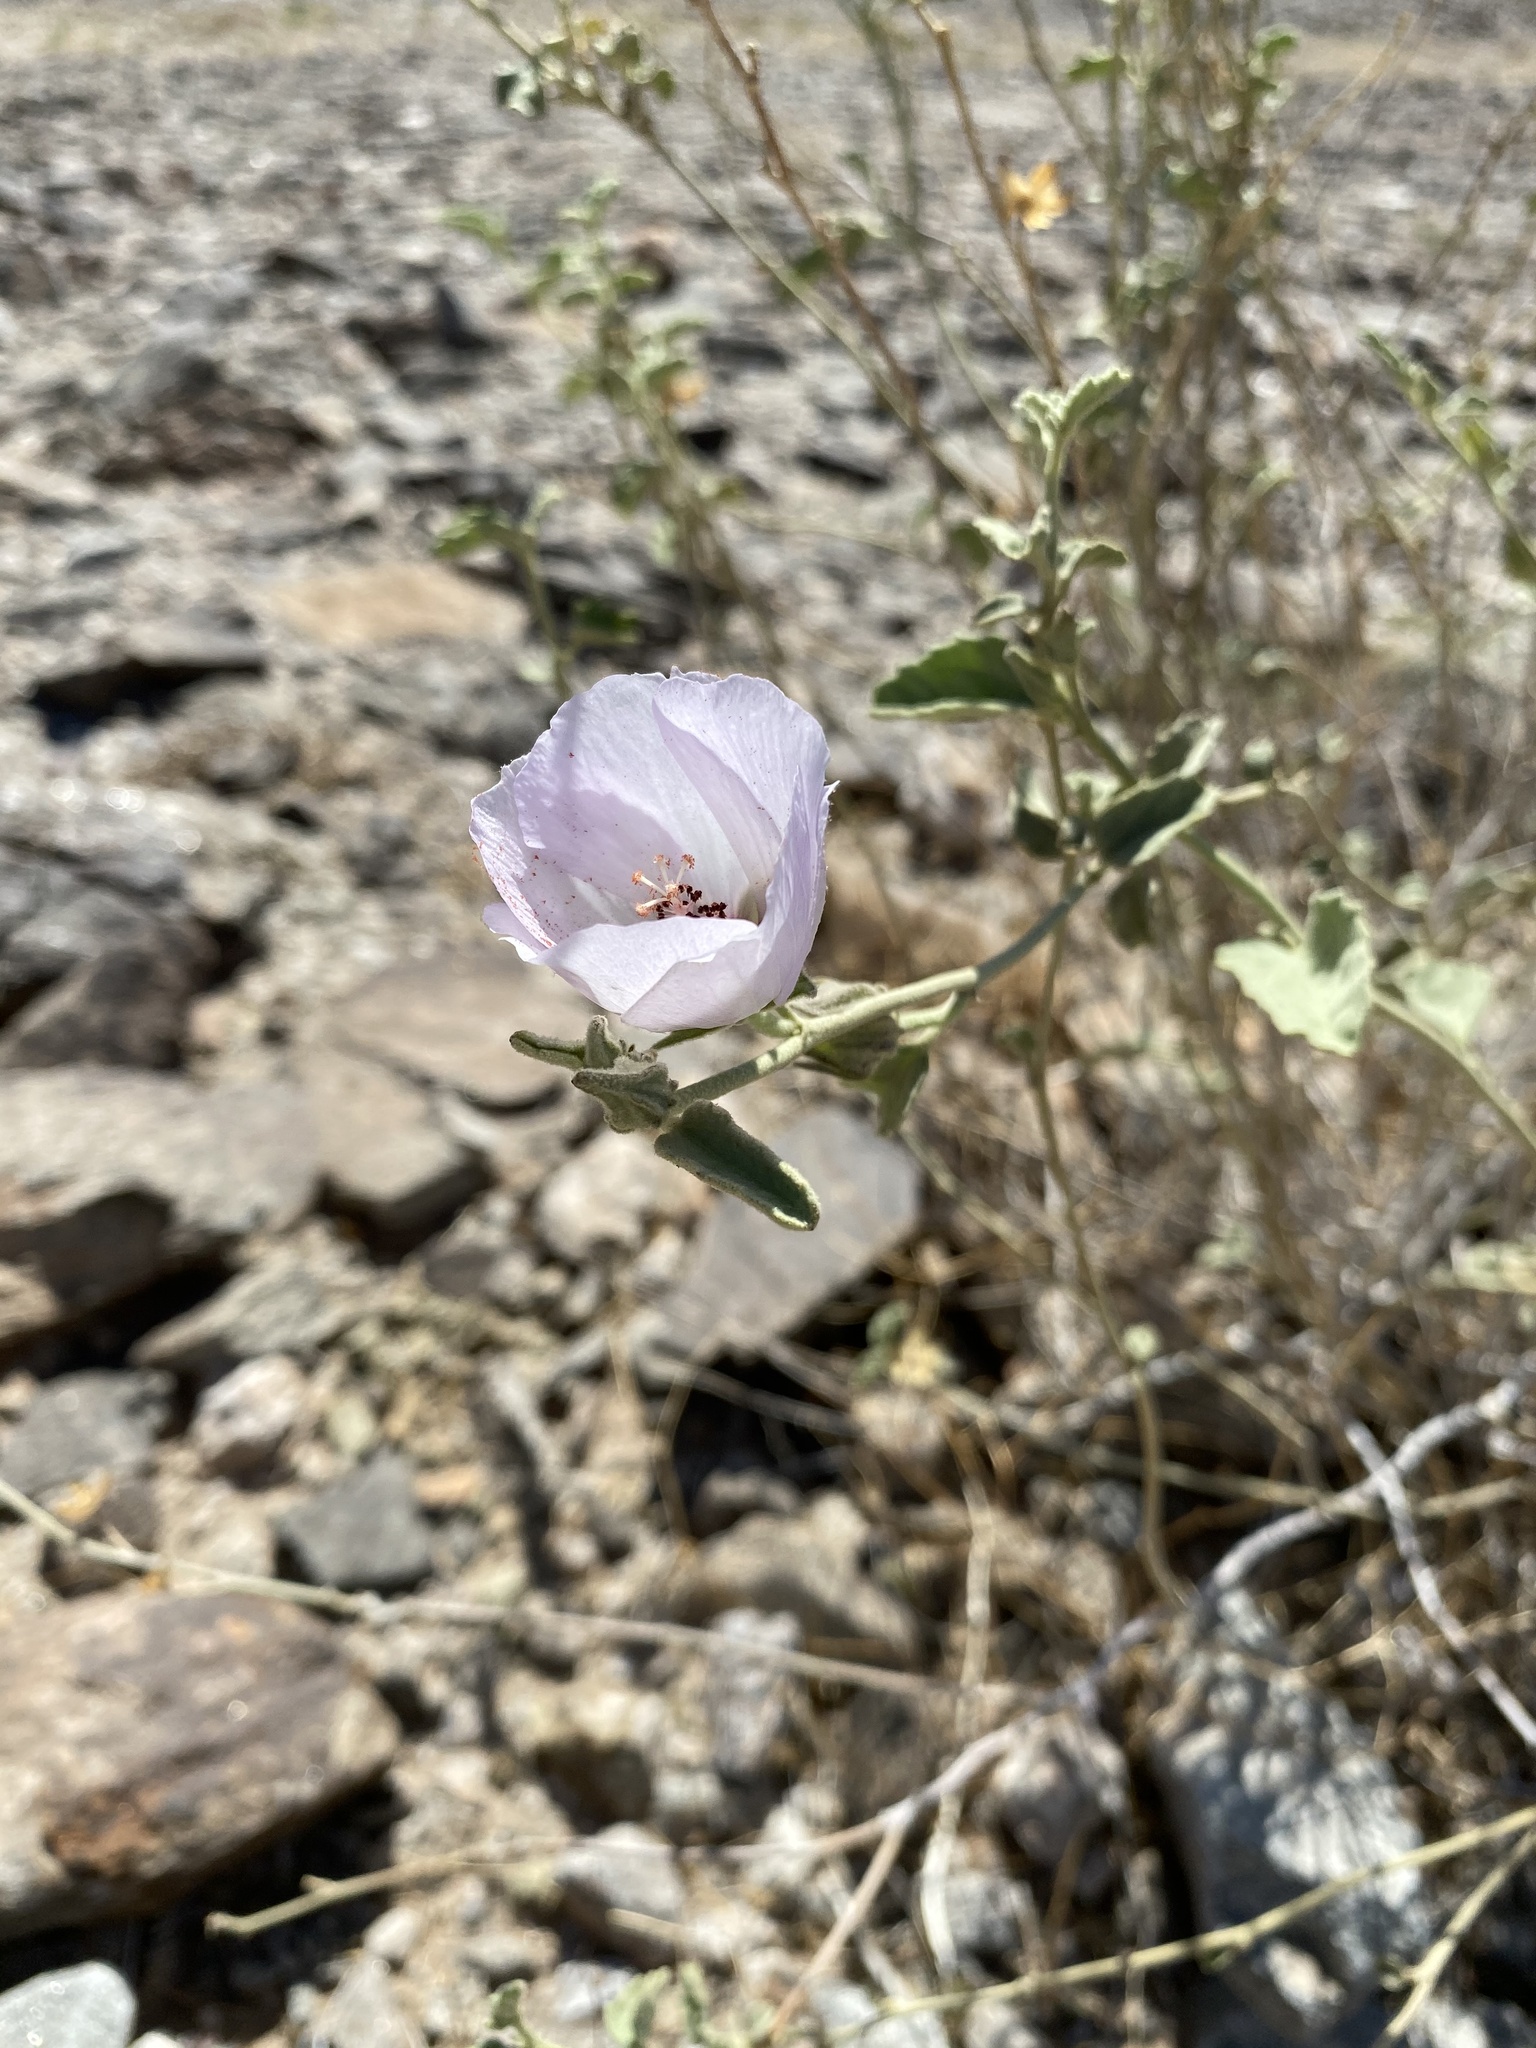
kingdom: Plantae
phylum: Tracheophyta
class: Magnoliopsida
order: Malvales
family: Malvaceae
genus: Hibiscus
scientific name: Hibiscus denudatus
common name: Paleface
